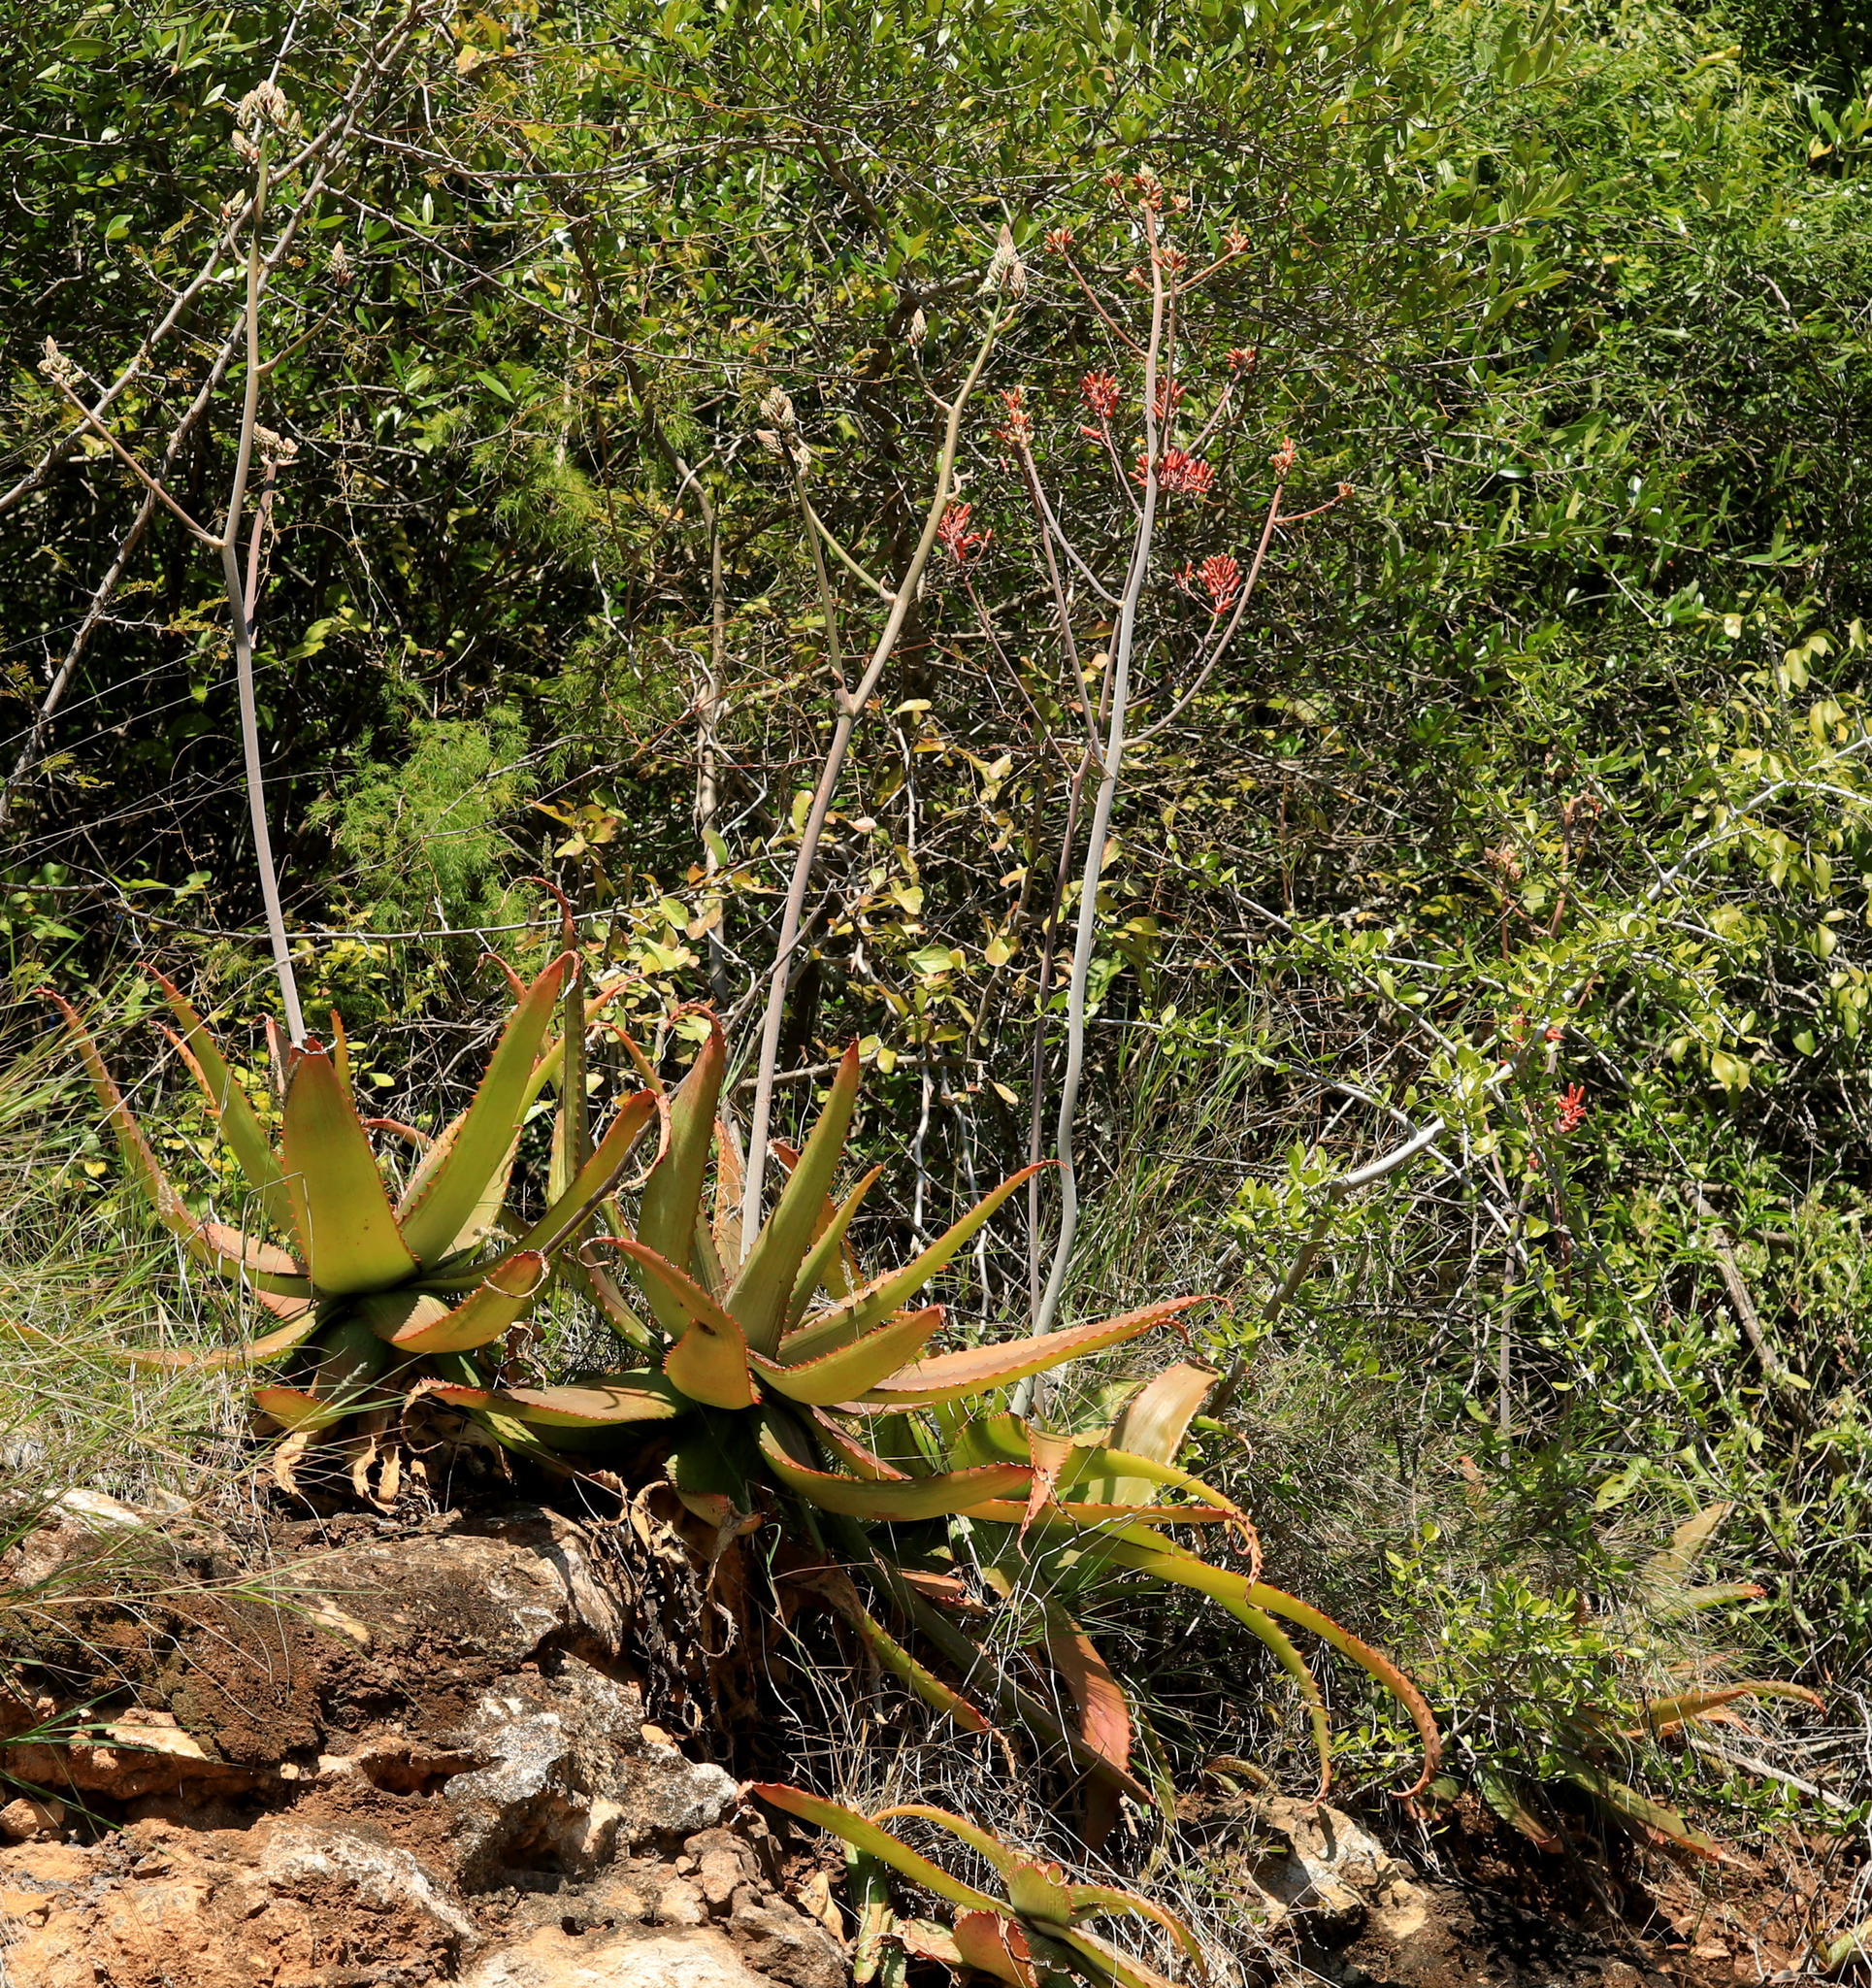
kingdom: Plantae
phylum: Tracheophyta
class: Liliopsida
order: Asparagales
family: Asphodelaceae
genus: Aloe
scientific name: Aloe branddraaiensis
